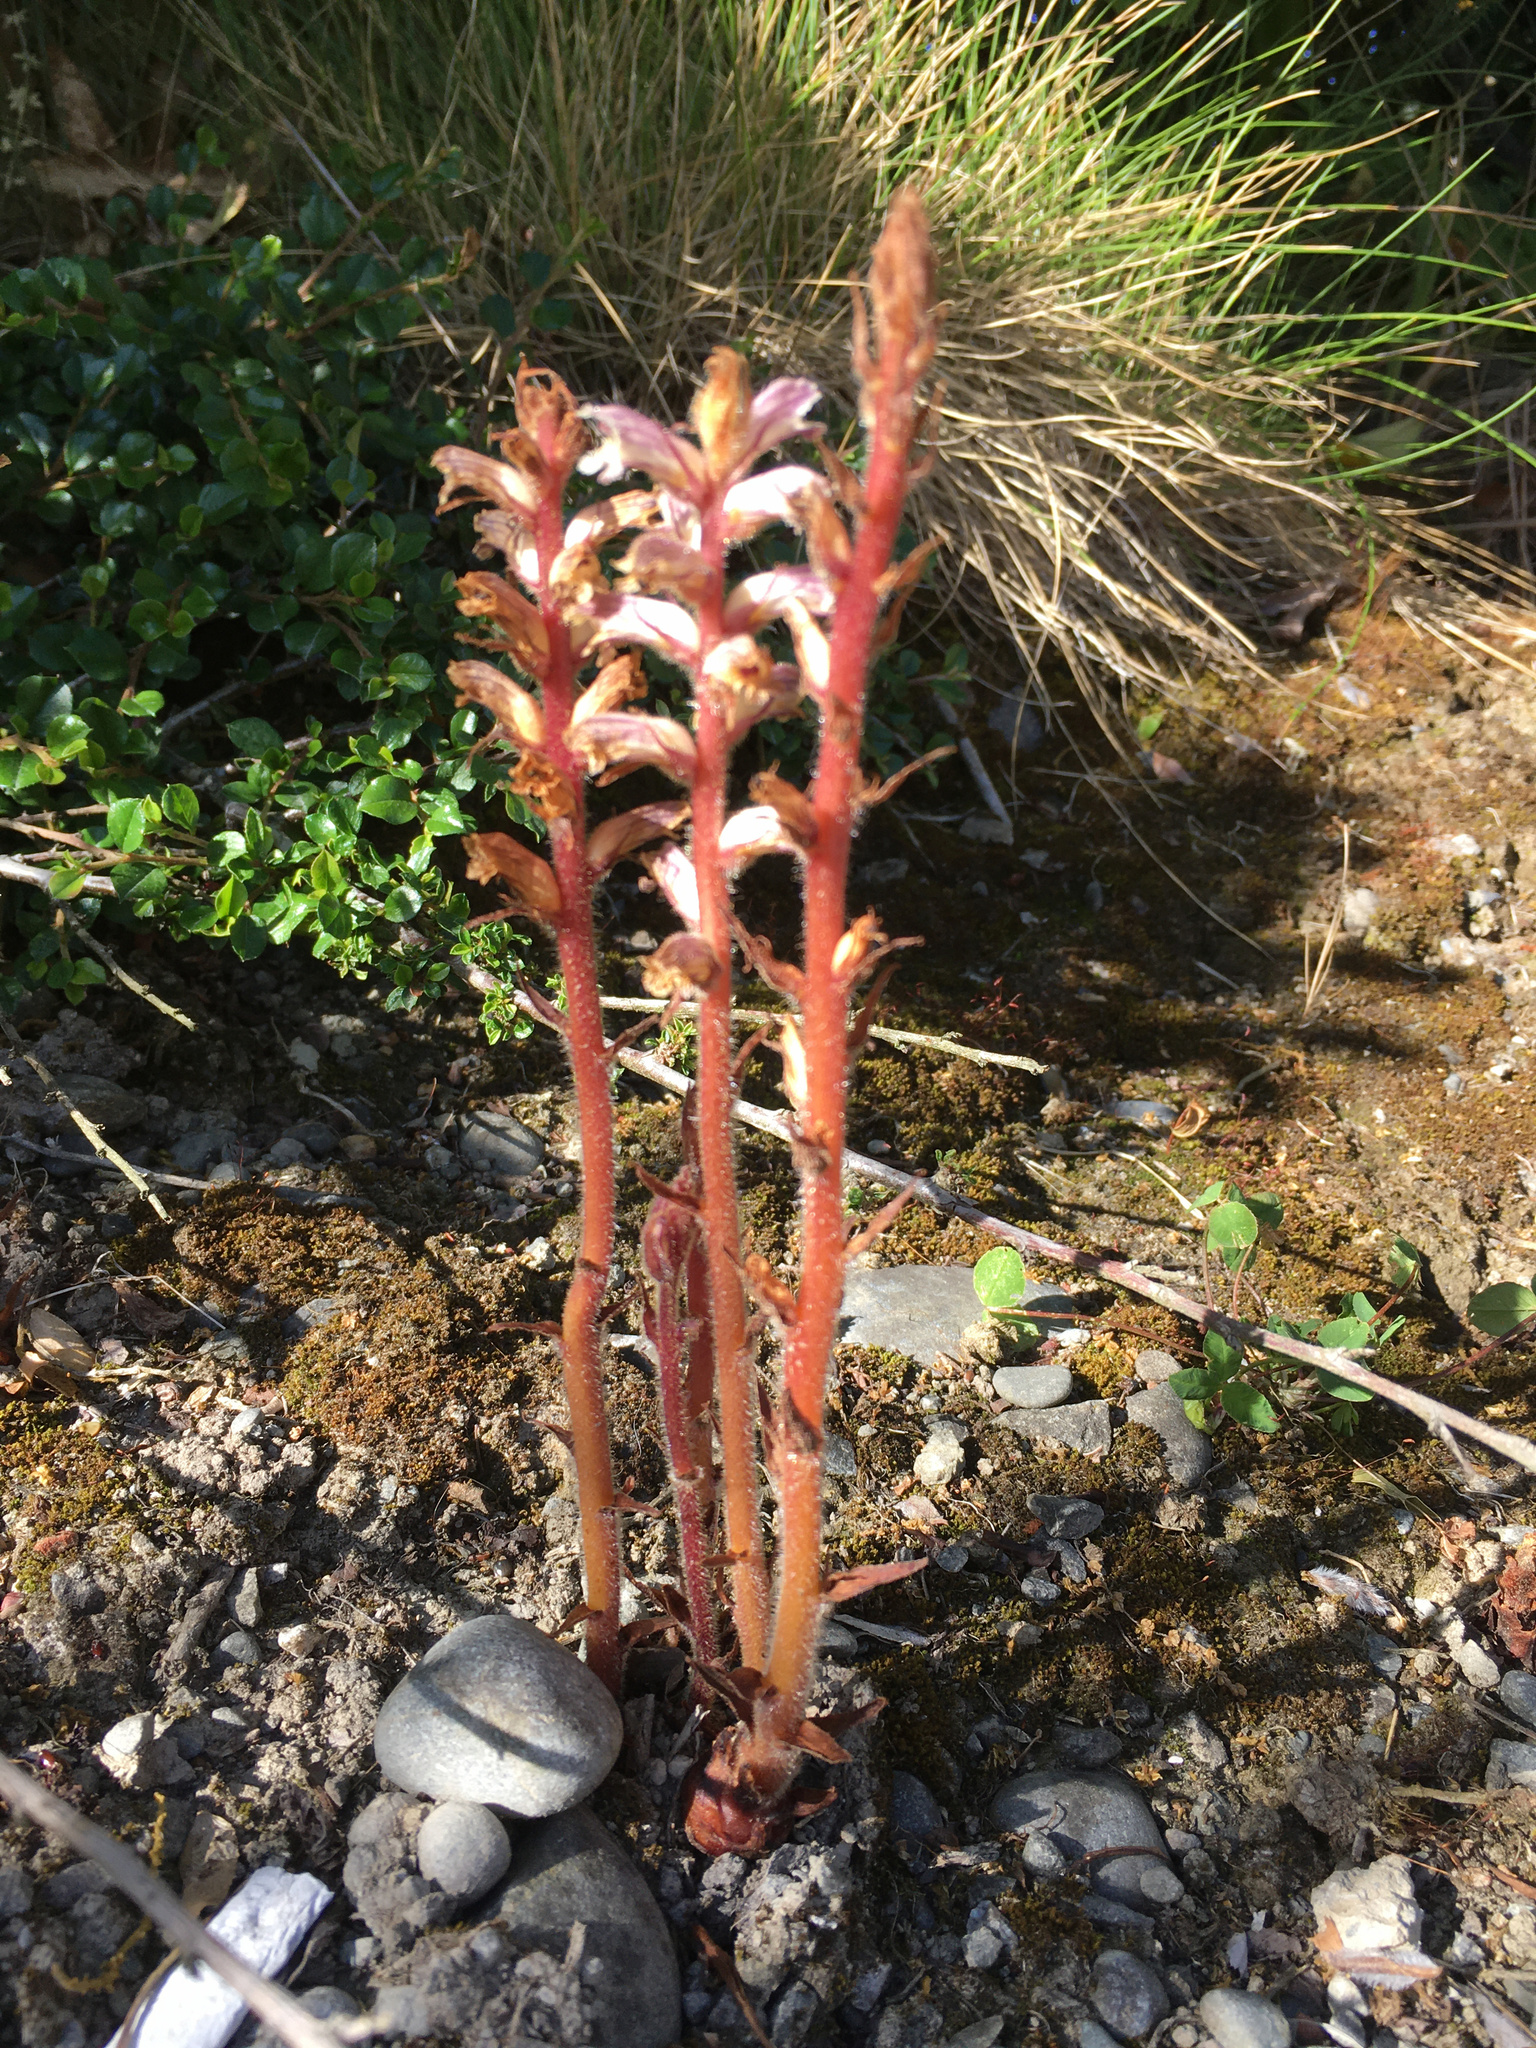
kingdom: Plantae
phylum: Tracheophyta
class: Magnoliopsida
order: Lamiales
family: Orobanchaceae
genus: Orobanche
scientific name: Orobanche minor
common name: Common broomrape
